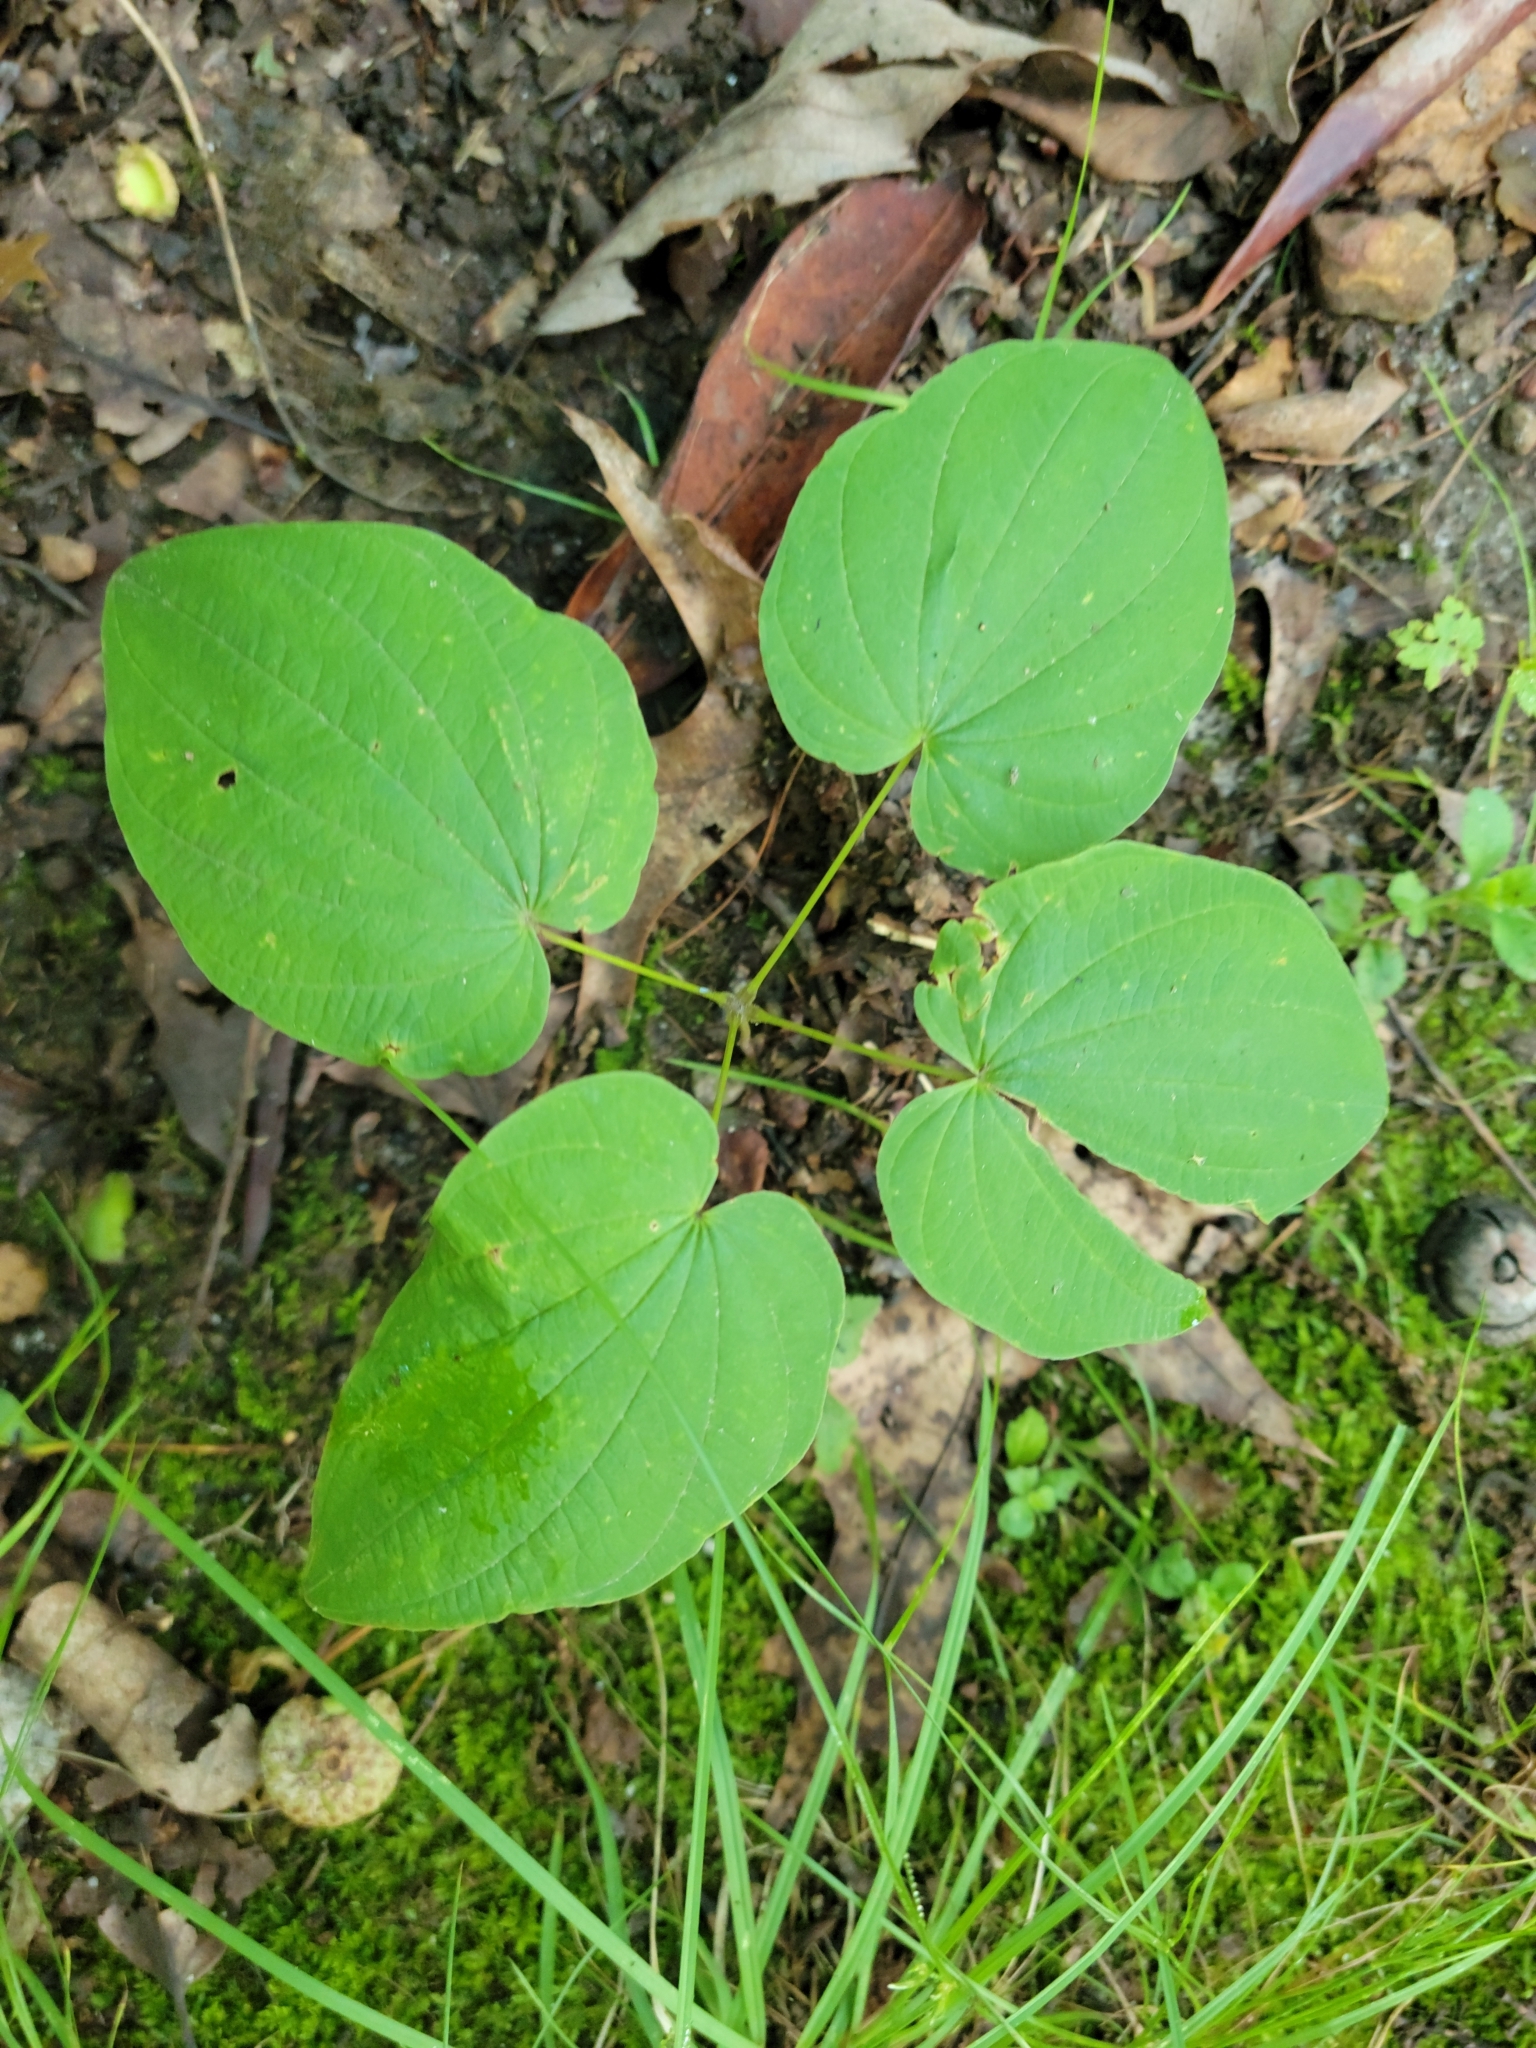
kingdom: Plantae
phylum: Tracheophyta
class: Liliopsida
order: Dioscoreales
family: Dioscoreaceae
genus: Dioscorea
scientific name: Dioscorea villosa
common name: Wild yam
